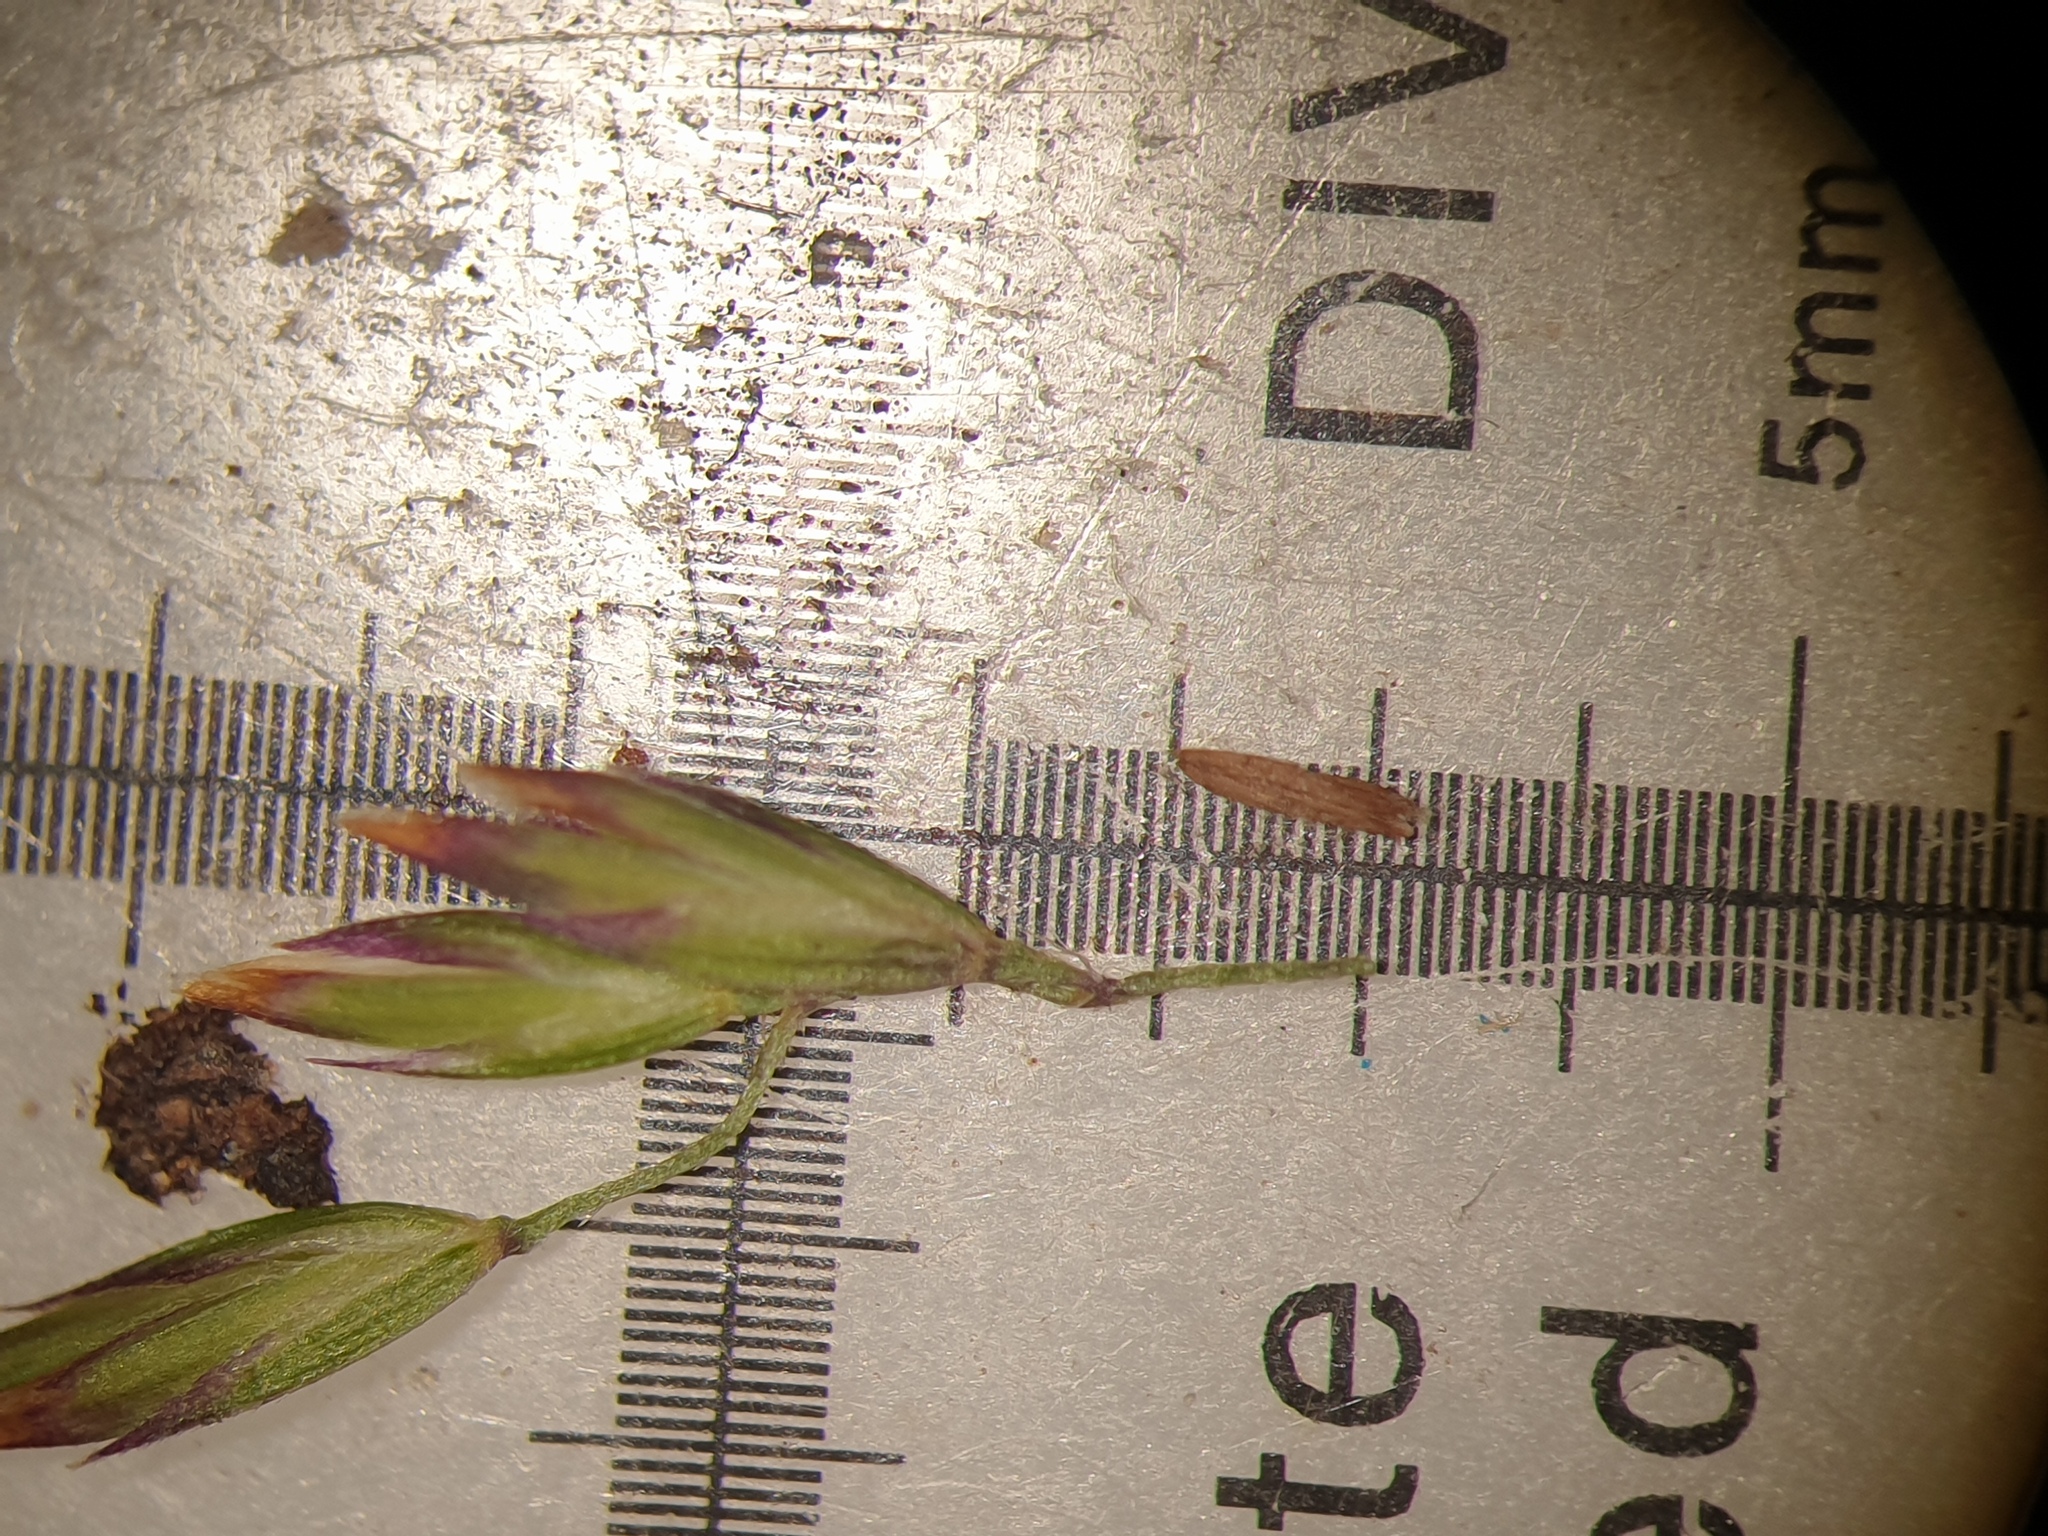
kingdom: Plantae
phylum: Tracheophyta
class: Liliopsida
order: Poales
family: Poaceae
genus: Poa
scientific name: Poa palustris
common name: Swamp meadow-grass
